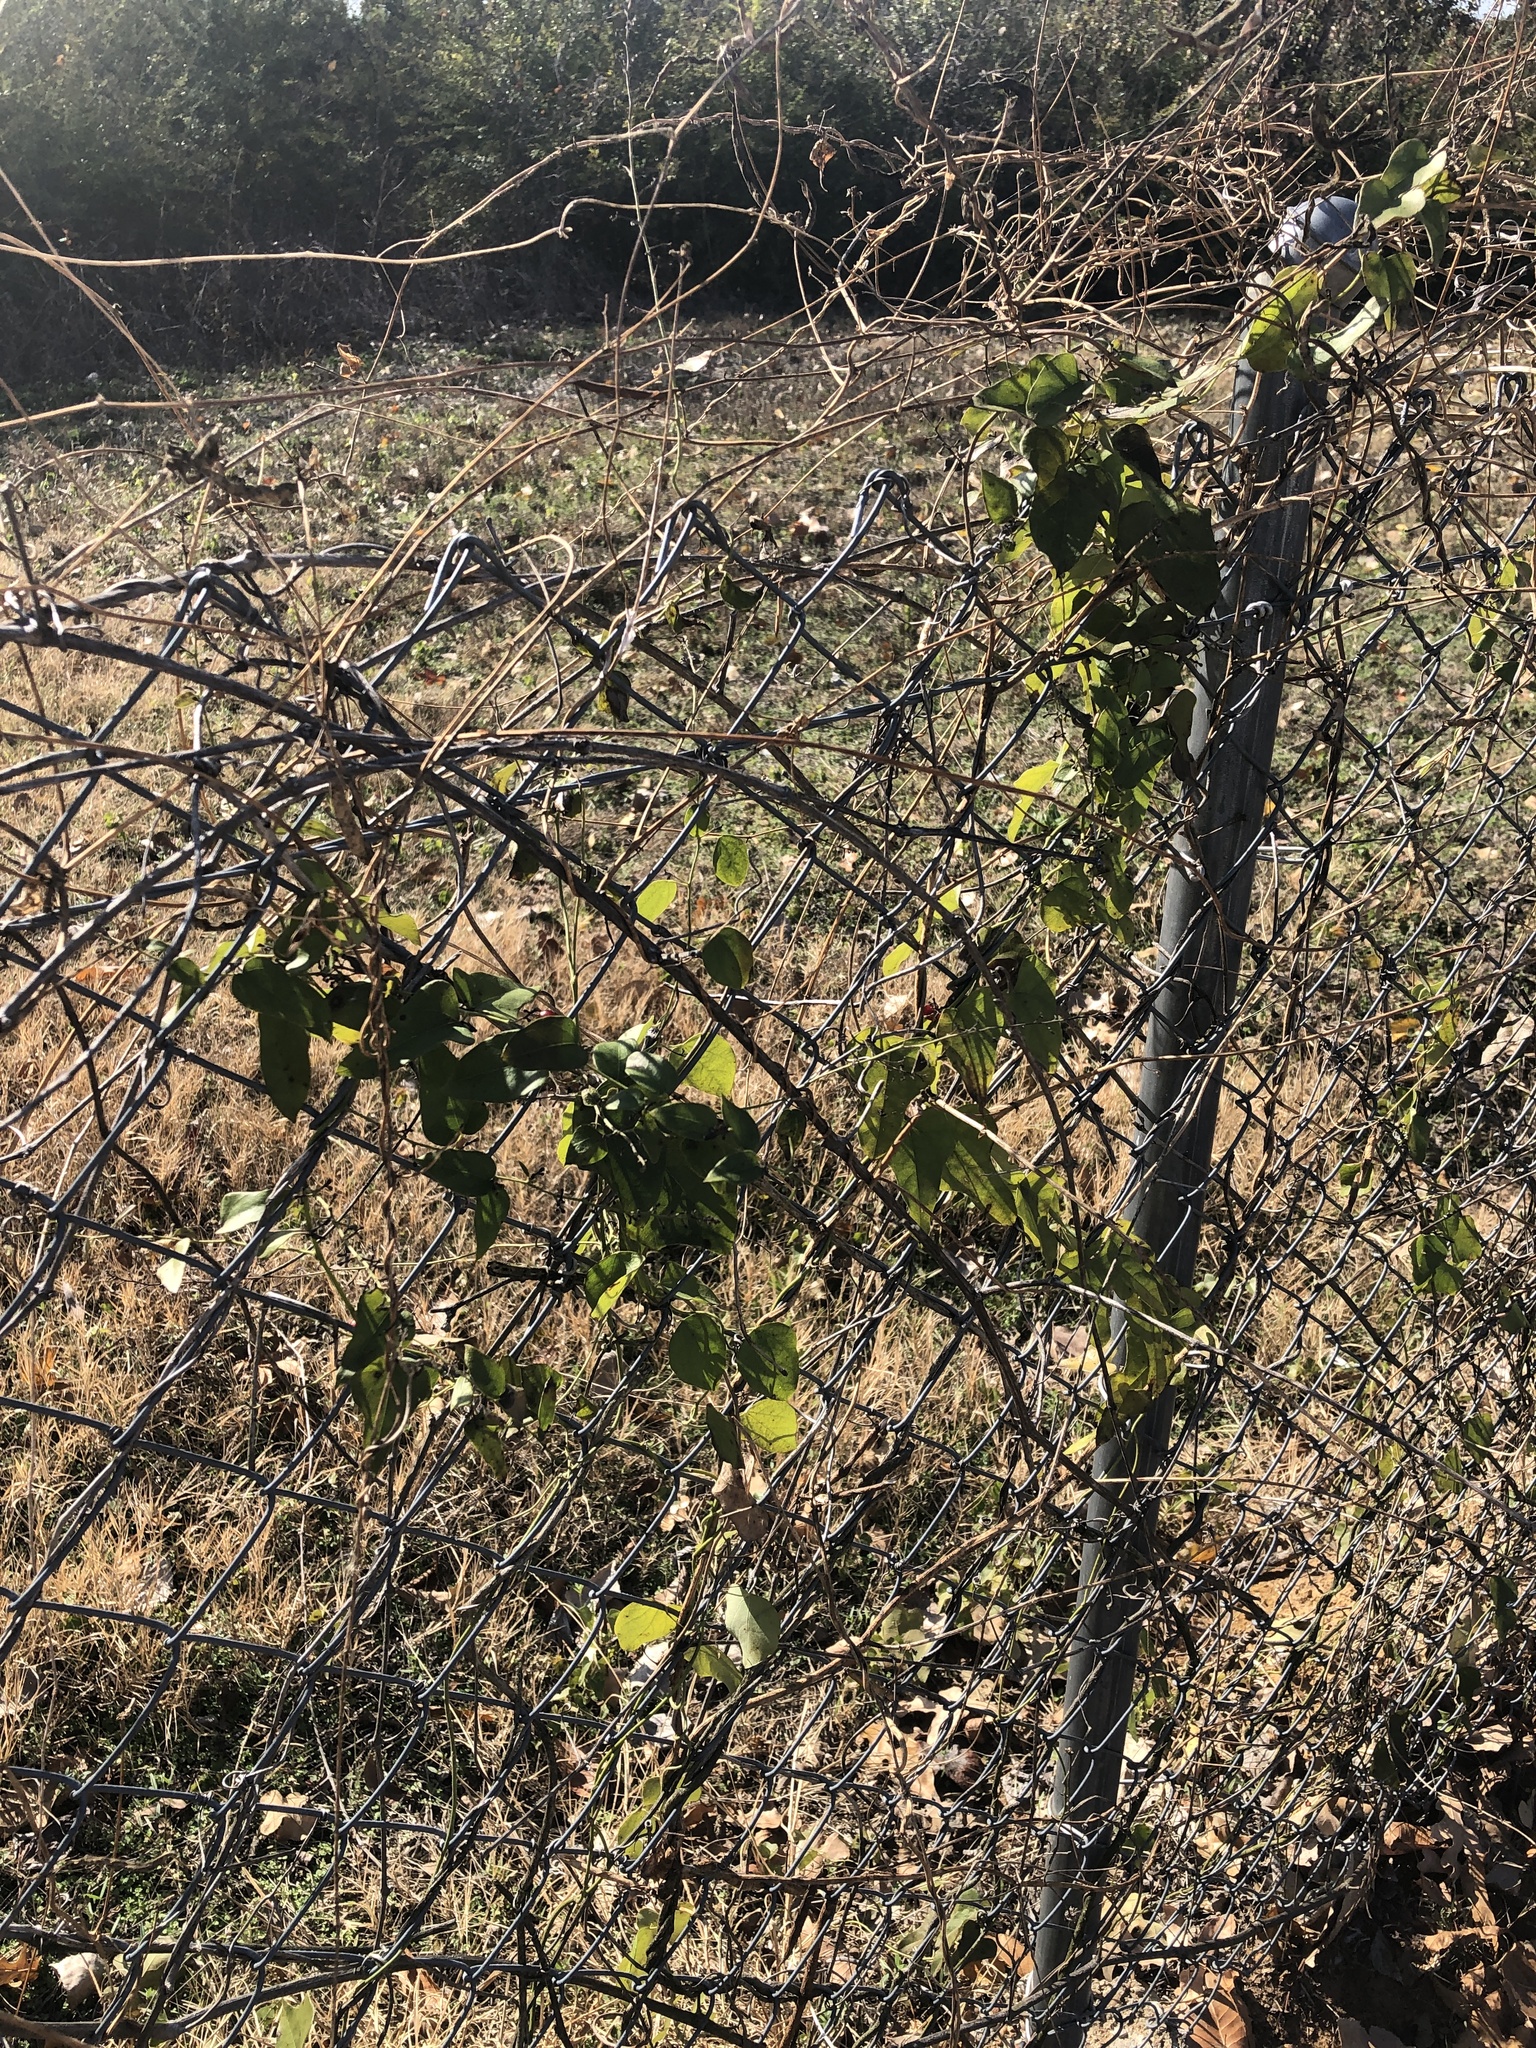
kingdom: Plantae
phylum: Tracheophyta
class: Magnoliopsida
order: Ranunculales
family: Menispermaceae
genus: Cocculus
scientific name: Cocculus carolinus
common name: Carolina moonseed
